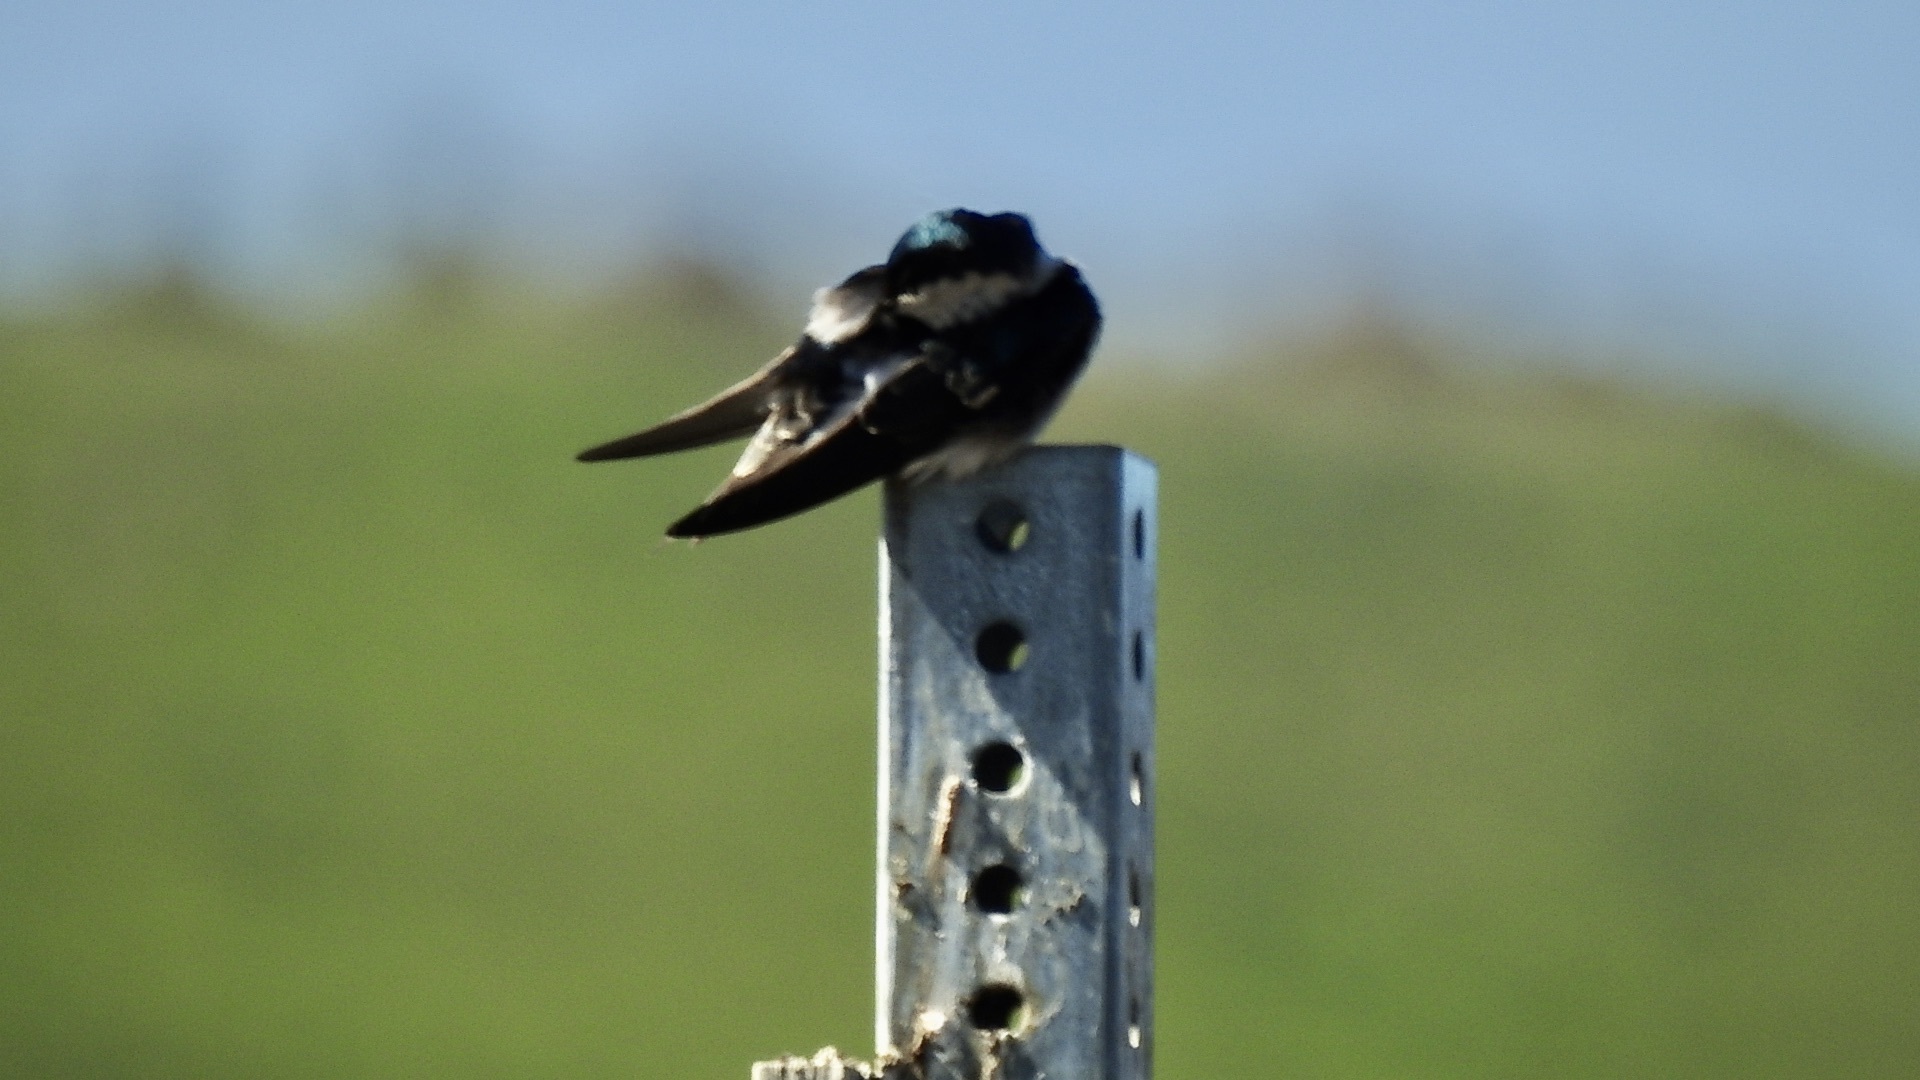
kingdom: Animalia
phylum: Chordata
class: Aves
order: Passeriformes
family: Hirundinidae
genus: Tachycineta
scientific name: Tachycineta bicolor
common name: Tree swallow
